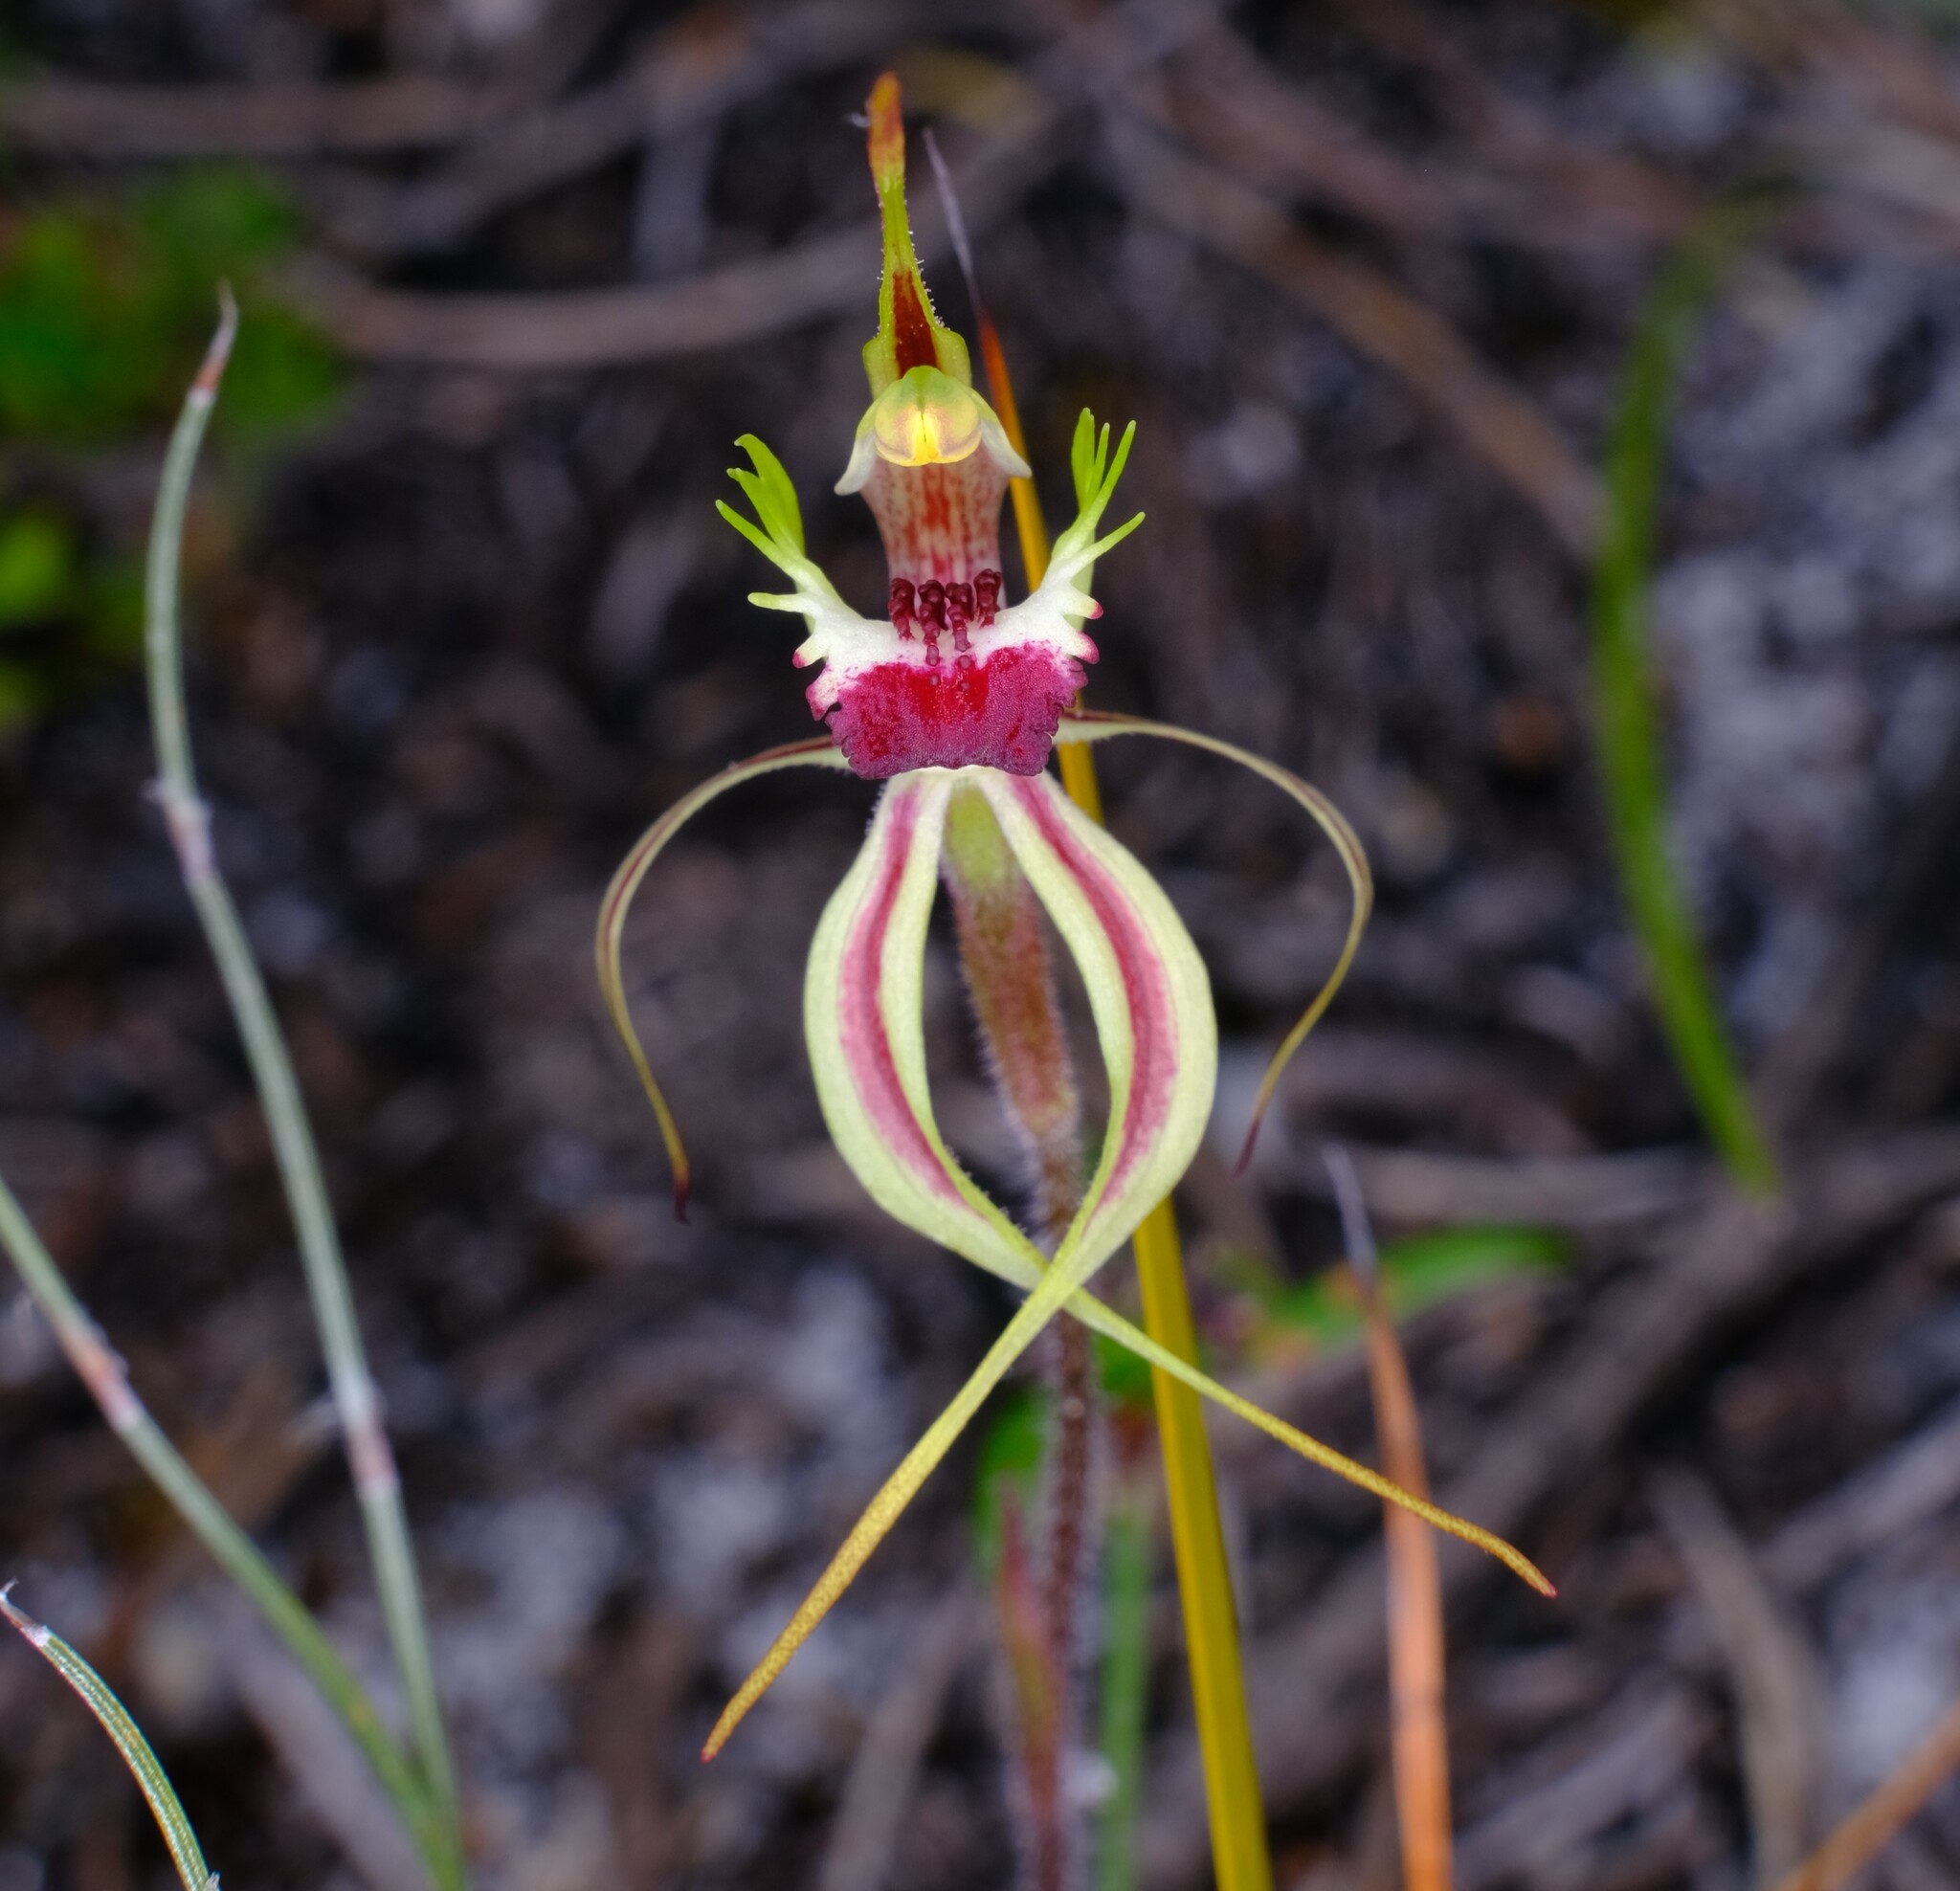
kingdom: Plantae
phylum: Tracheophyta
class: Liliopsida
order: Asparagales
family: Orchidaceae
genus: Caladenia
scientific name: Caladenia parva
